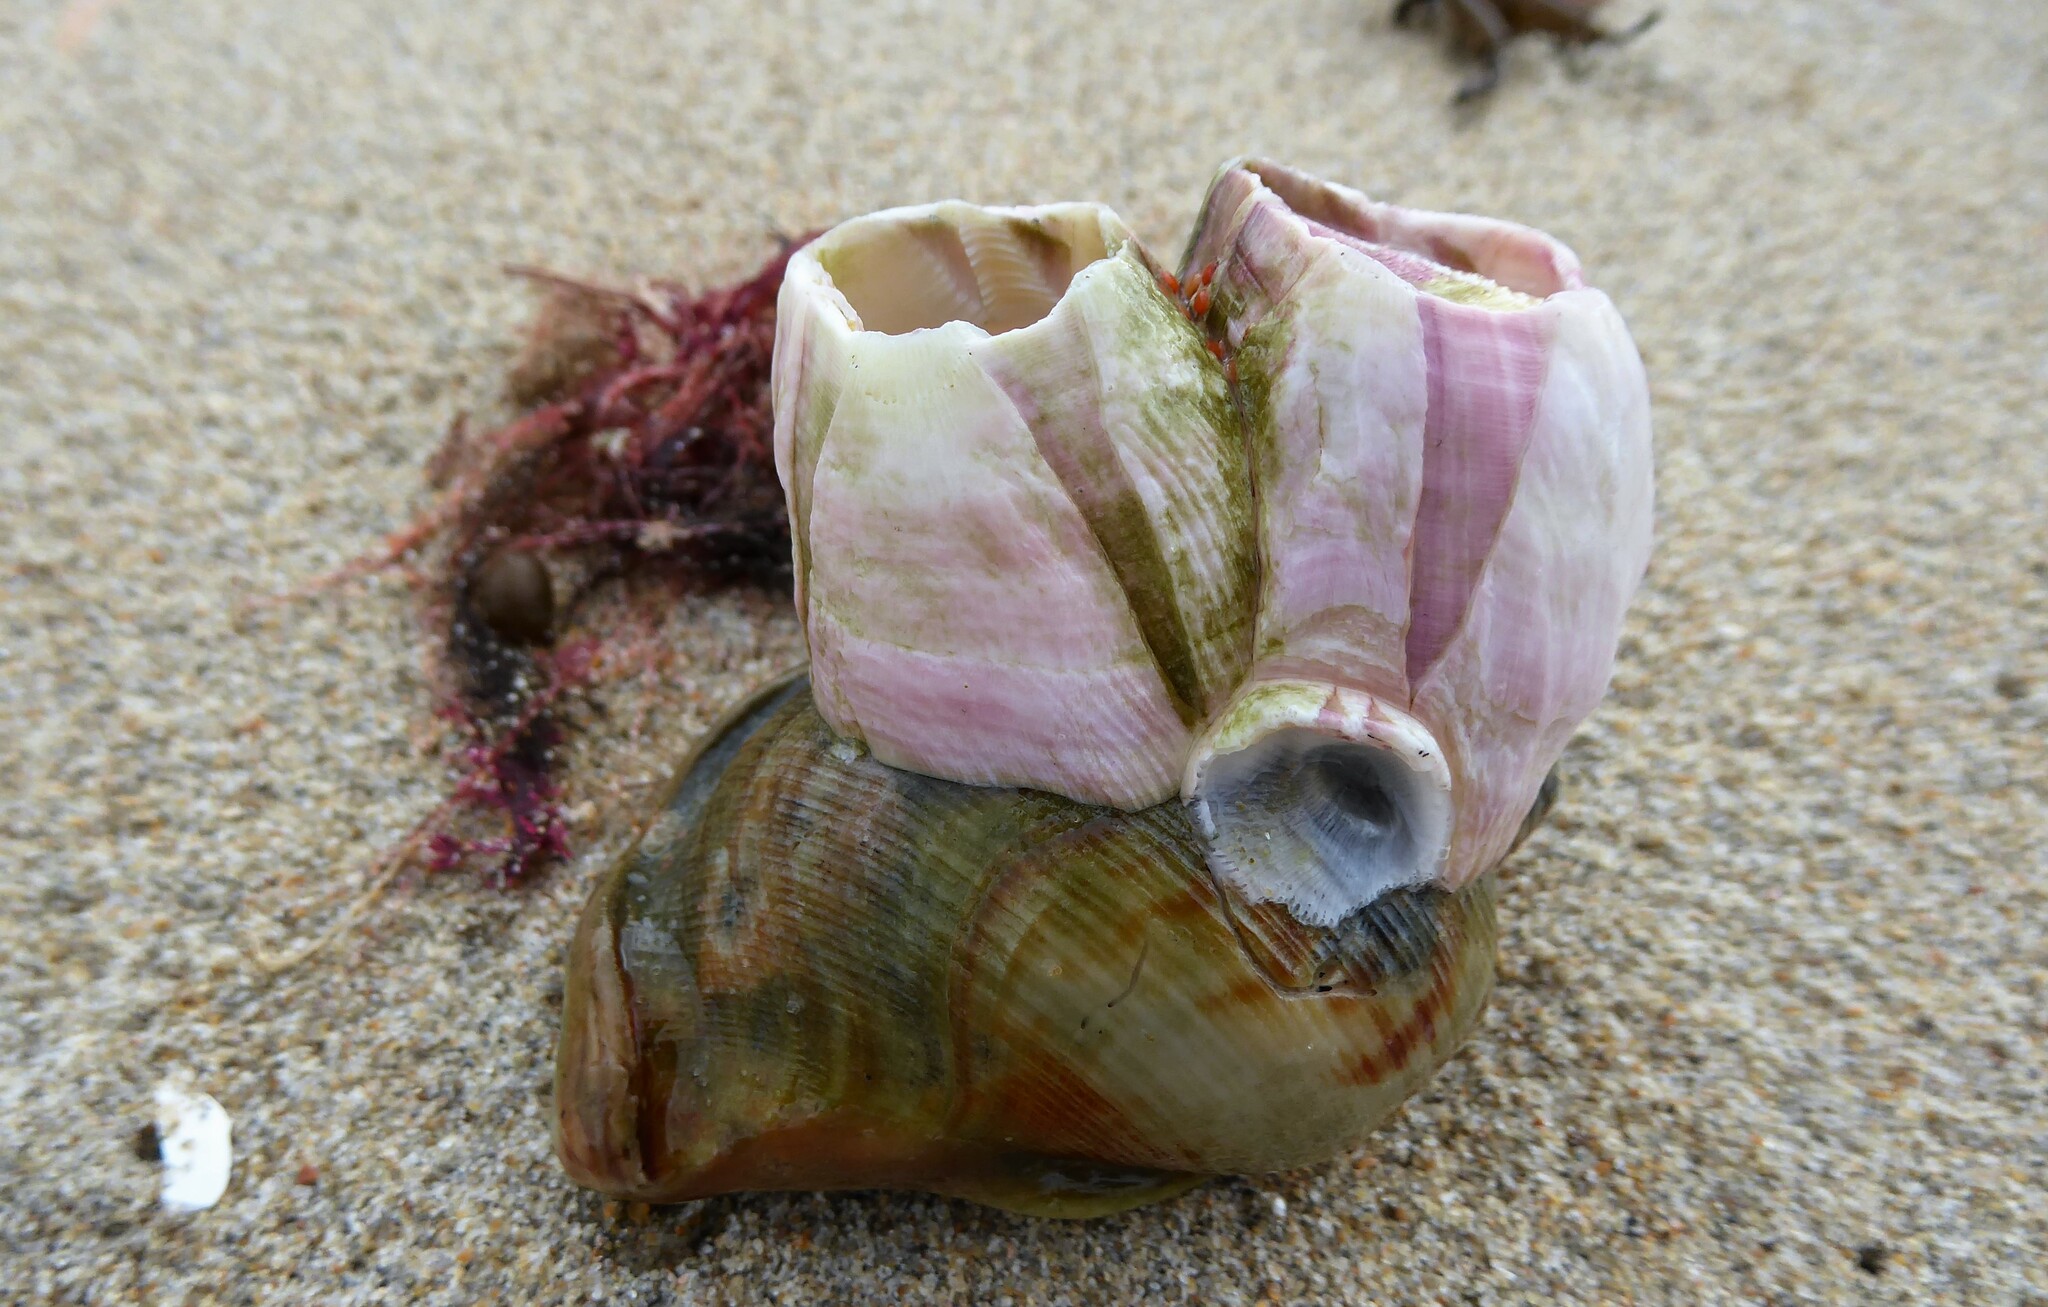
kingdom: Animalia
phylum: Arthropoda
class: Maxillopoda
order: Sessilia
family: Balanidae
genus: Notomegabalanus
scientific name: Notomegabalanus decorus
